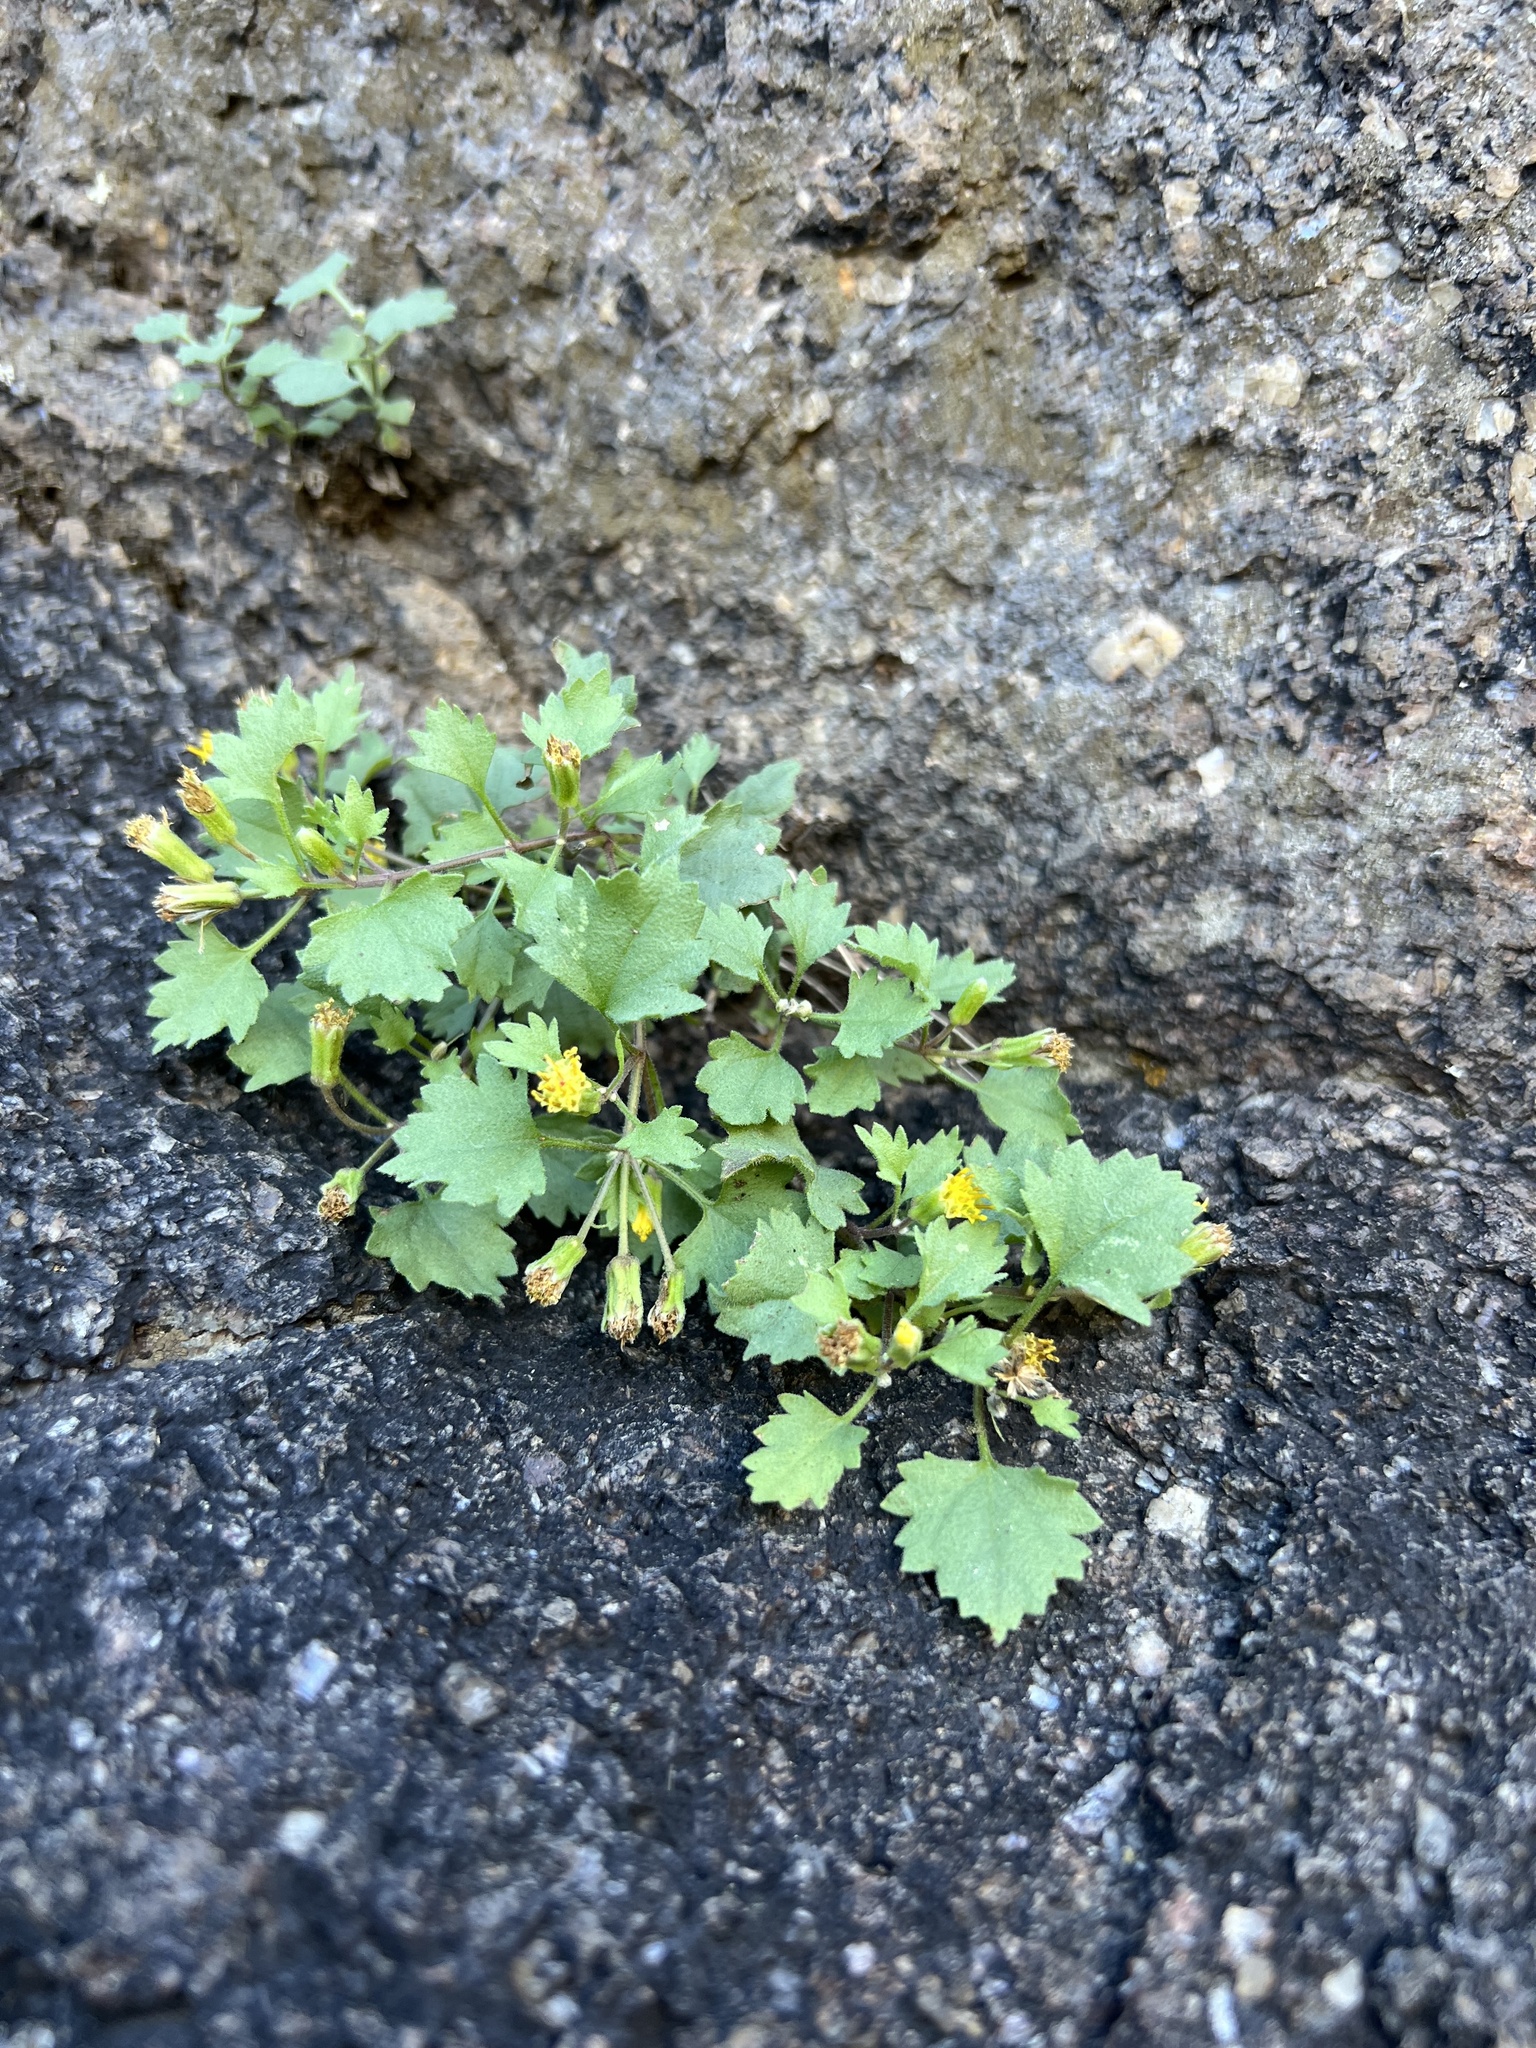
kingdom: Plantae
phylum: Tracheophyta
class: Magnoliopsida
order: Asterales
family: Asteraceae
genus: Laphamia
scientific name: Laphamia rupestris
